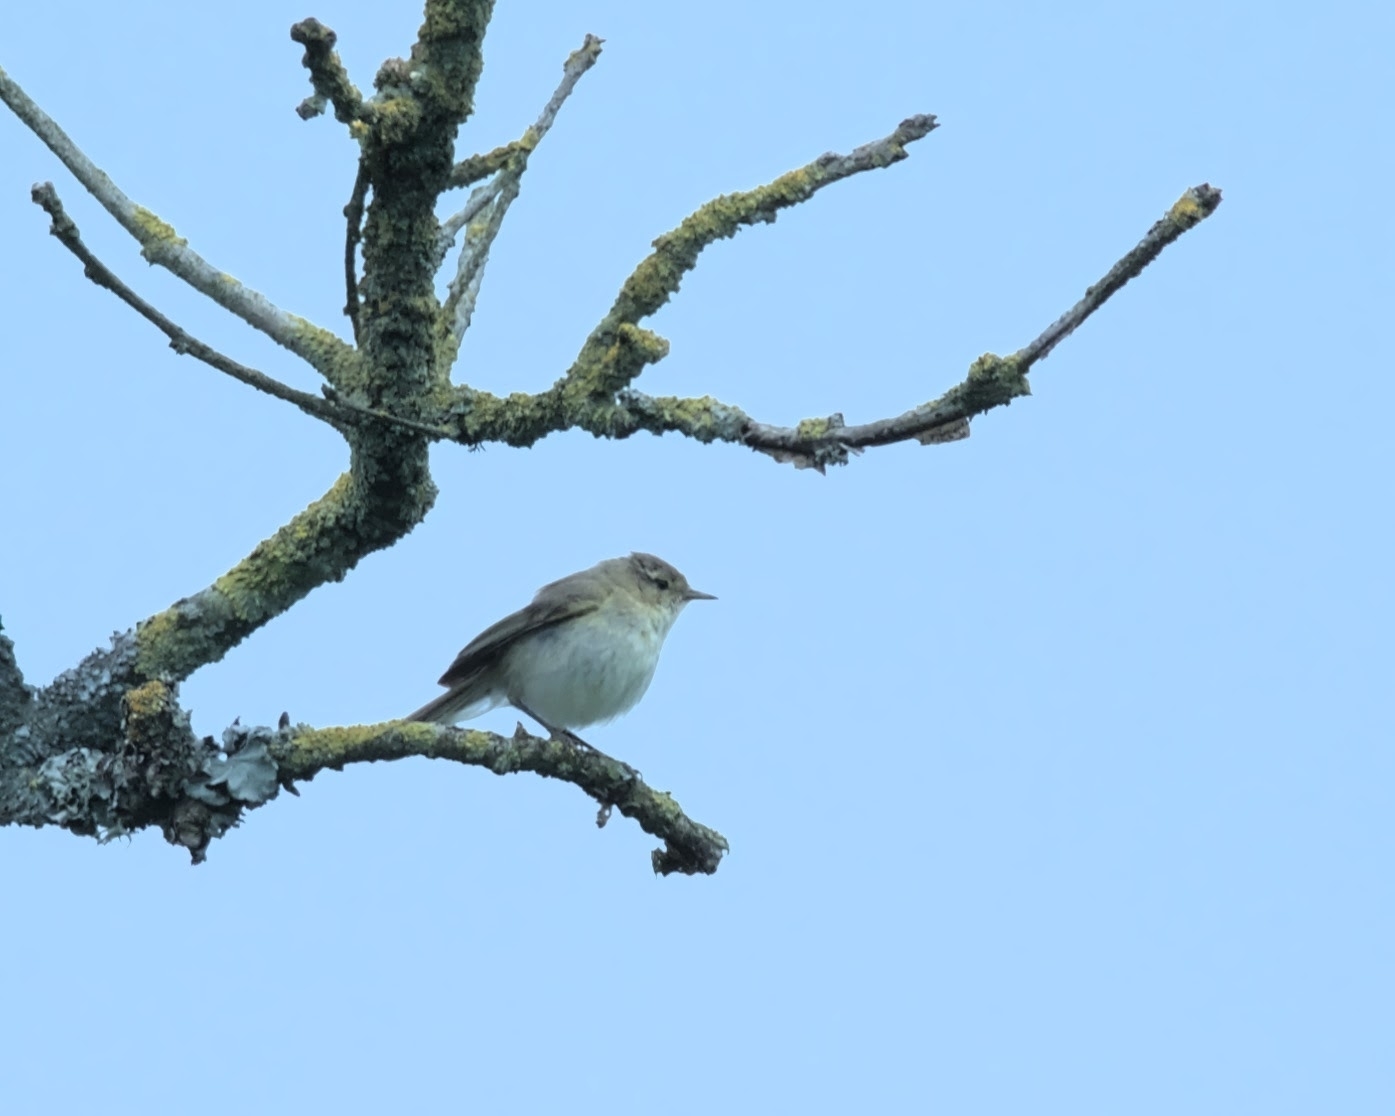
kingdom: Animalia
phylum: Chordata
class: Aves
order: Passeriformes
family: Phylloscopidae
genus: Phylloscopus
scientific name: Phylloscopus collybita
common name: Common chiffchaff
